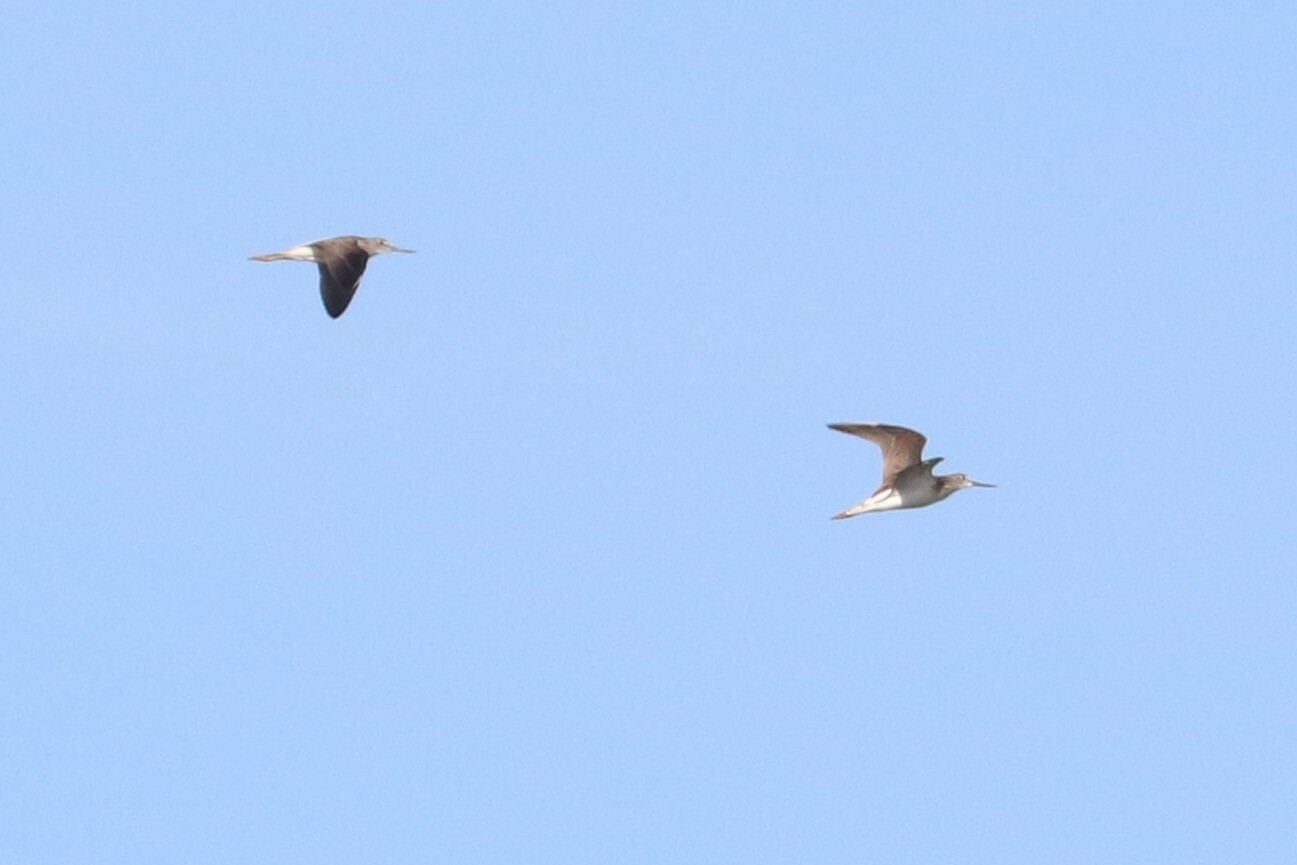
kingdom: Animalia
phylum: Chordata
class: Aves
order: Charadriiformes
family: Scolopacidae
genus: Tringa
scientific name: Tringa nebularia
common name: Common greenshank
